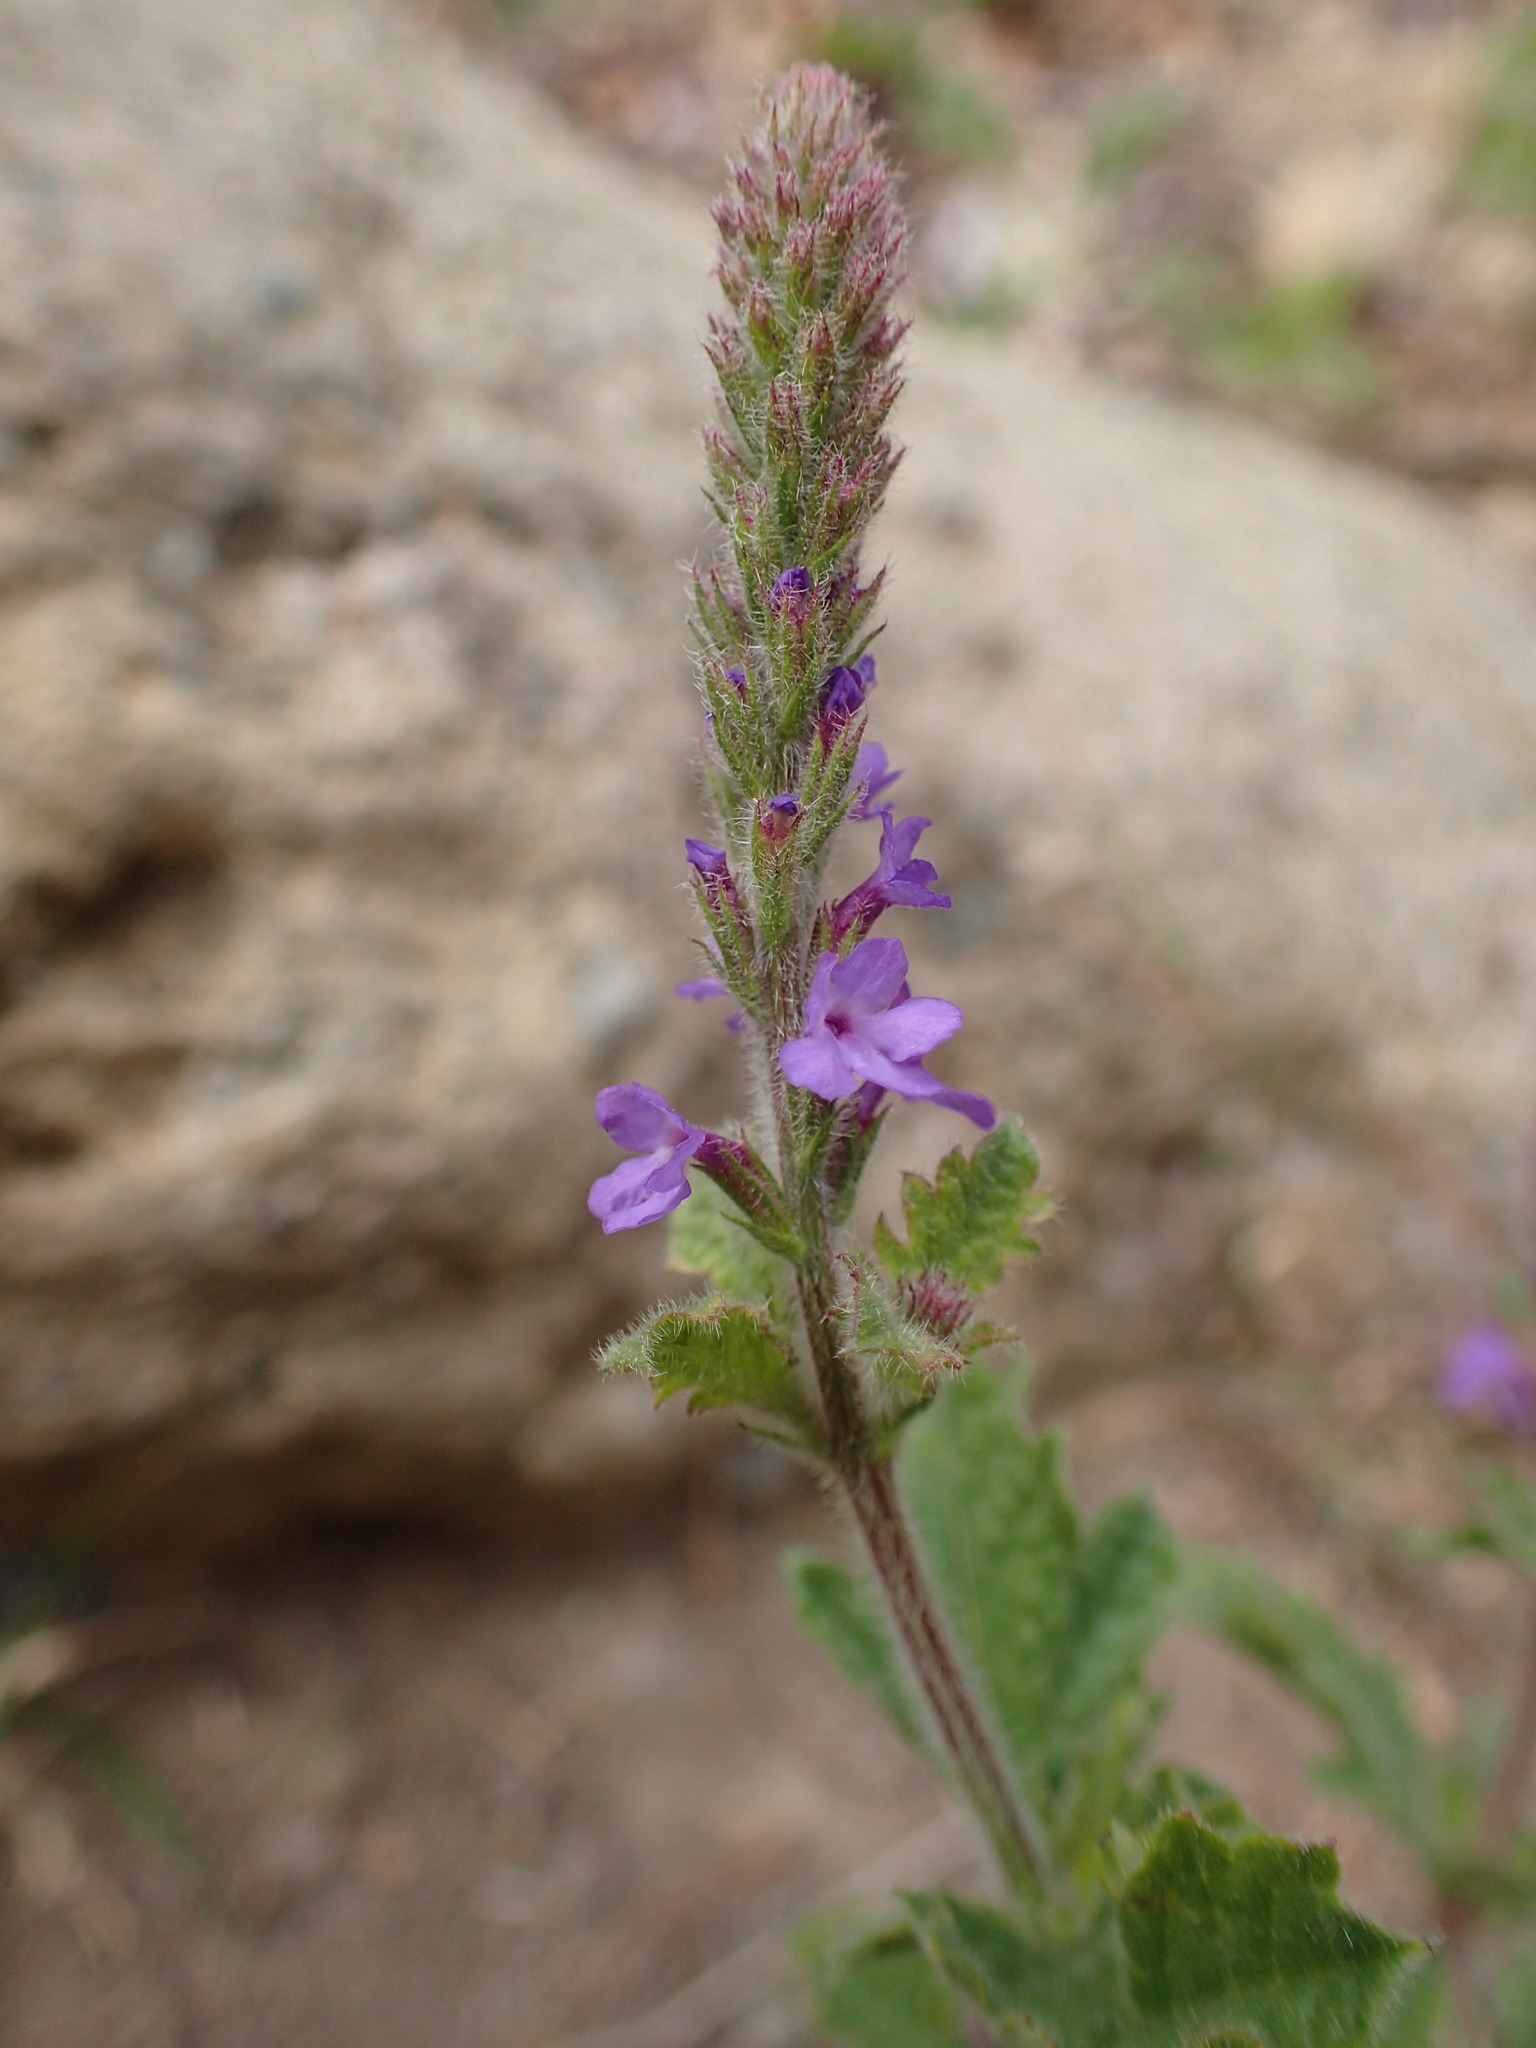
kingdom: Plantae
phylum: Tracheophyta
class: Magnoliopsida
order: Lamiales
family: Verbenaceae
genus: Verbena
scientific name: Verbena lasiostachys
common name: Vervain
